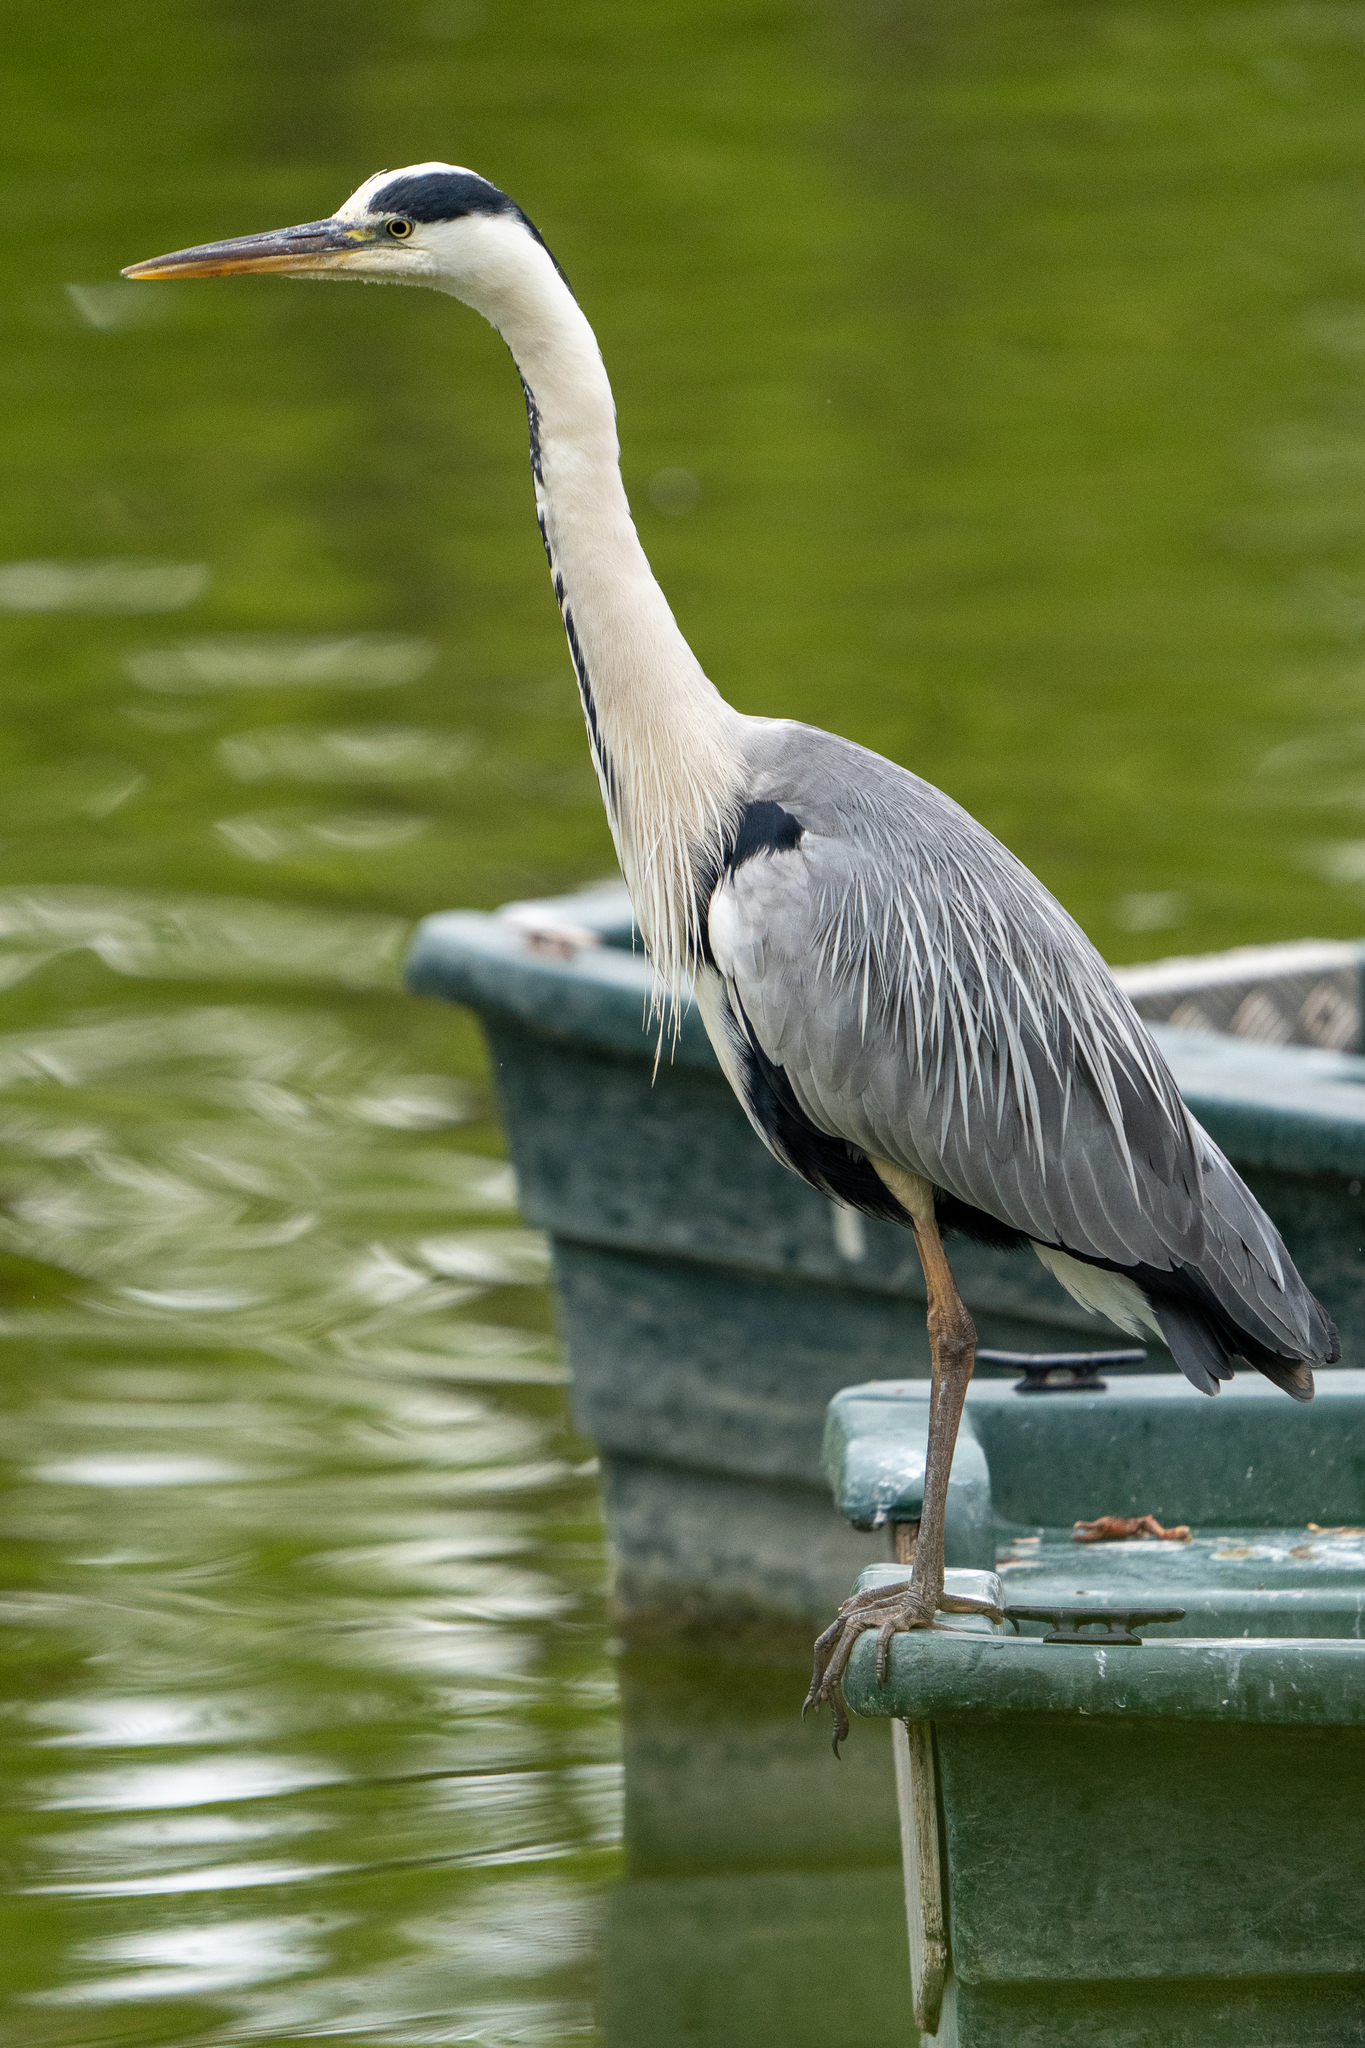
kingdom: Animalia
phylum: Chordata
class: Aves
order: Pelecaniformes
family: Ardeidae
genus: Ardea
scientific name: Ardea cinerea
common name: Grey heron
